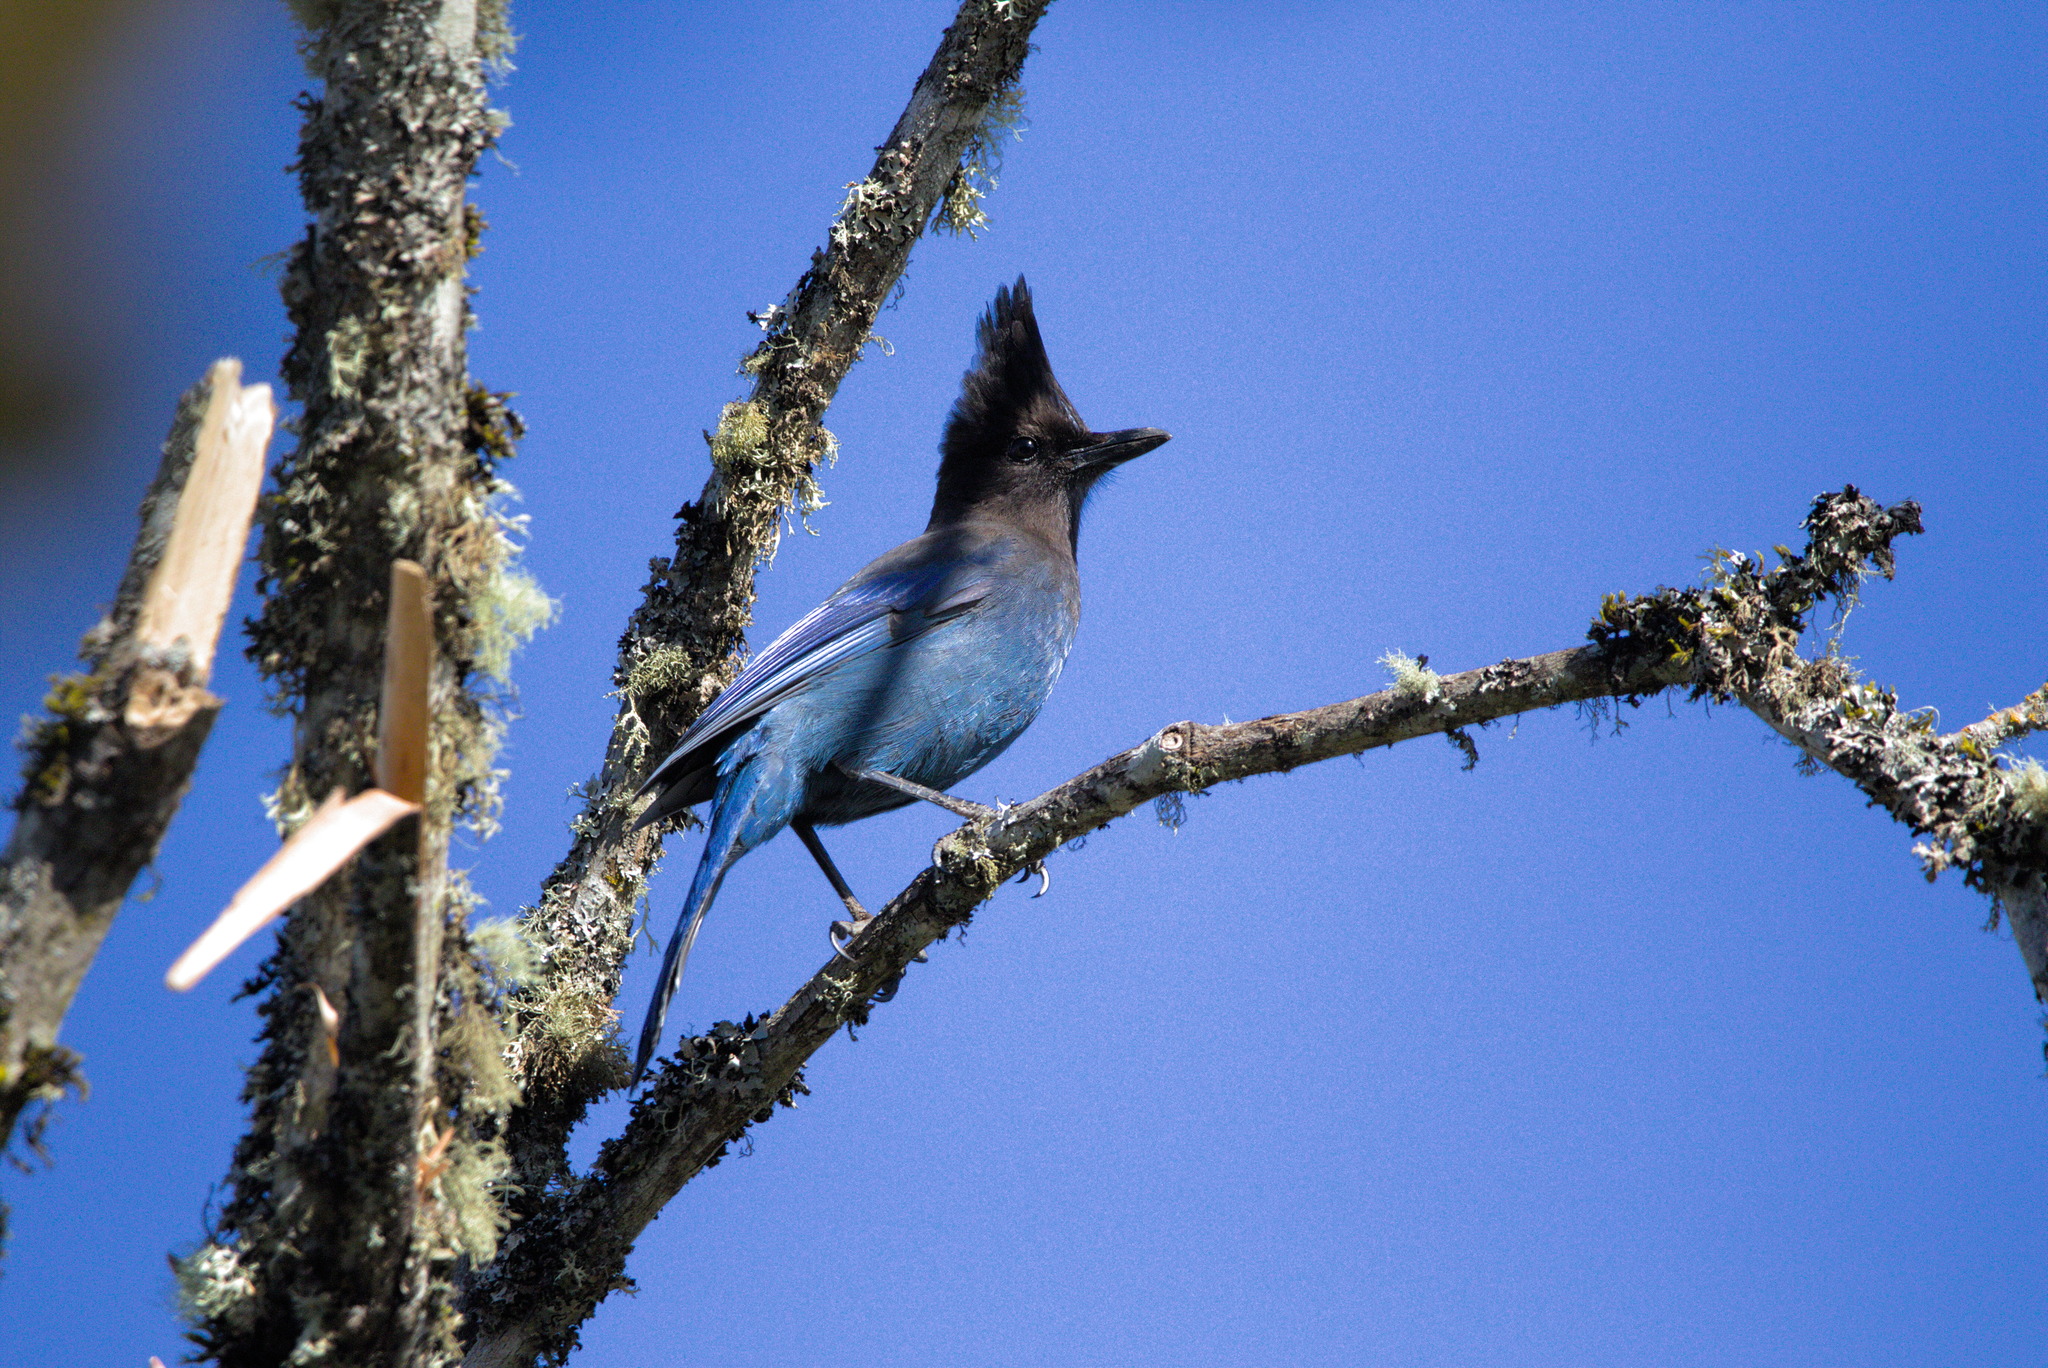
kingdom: Animalia
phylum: Chordata
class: Aves
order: Passeriformes
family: Corvidae
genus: Cyanocitta
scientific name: Cyanocitta stelleri
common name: Steller's jay
